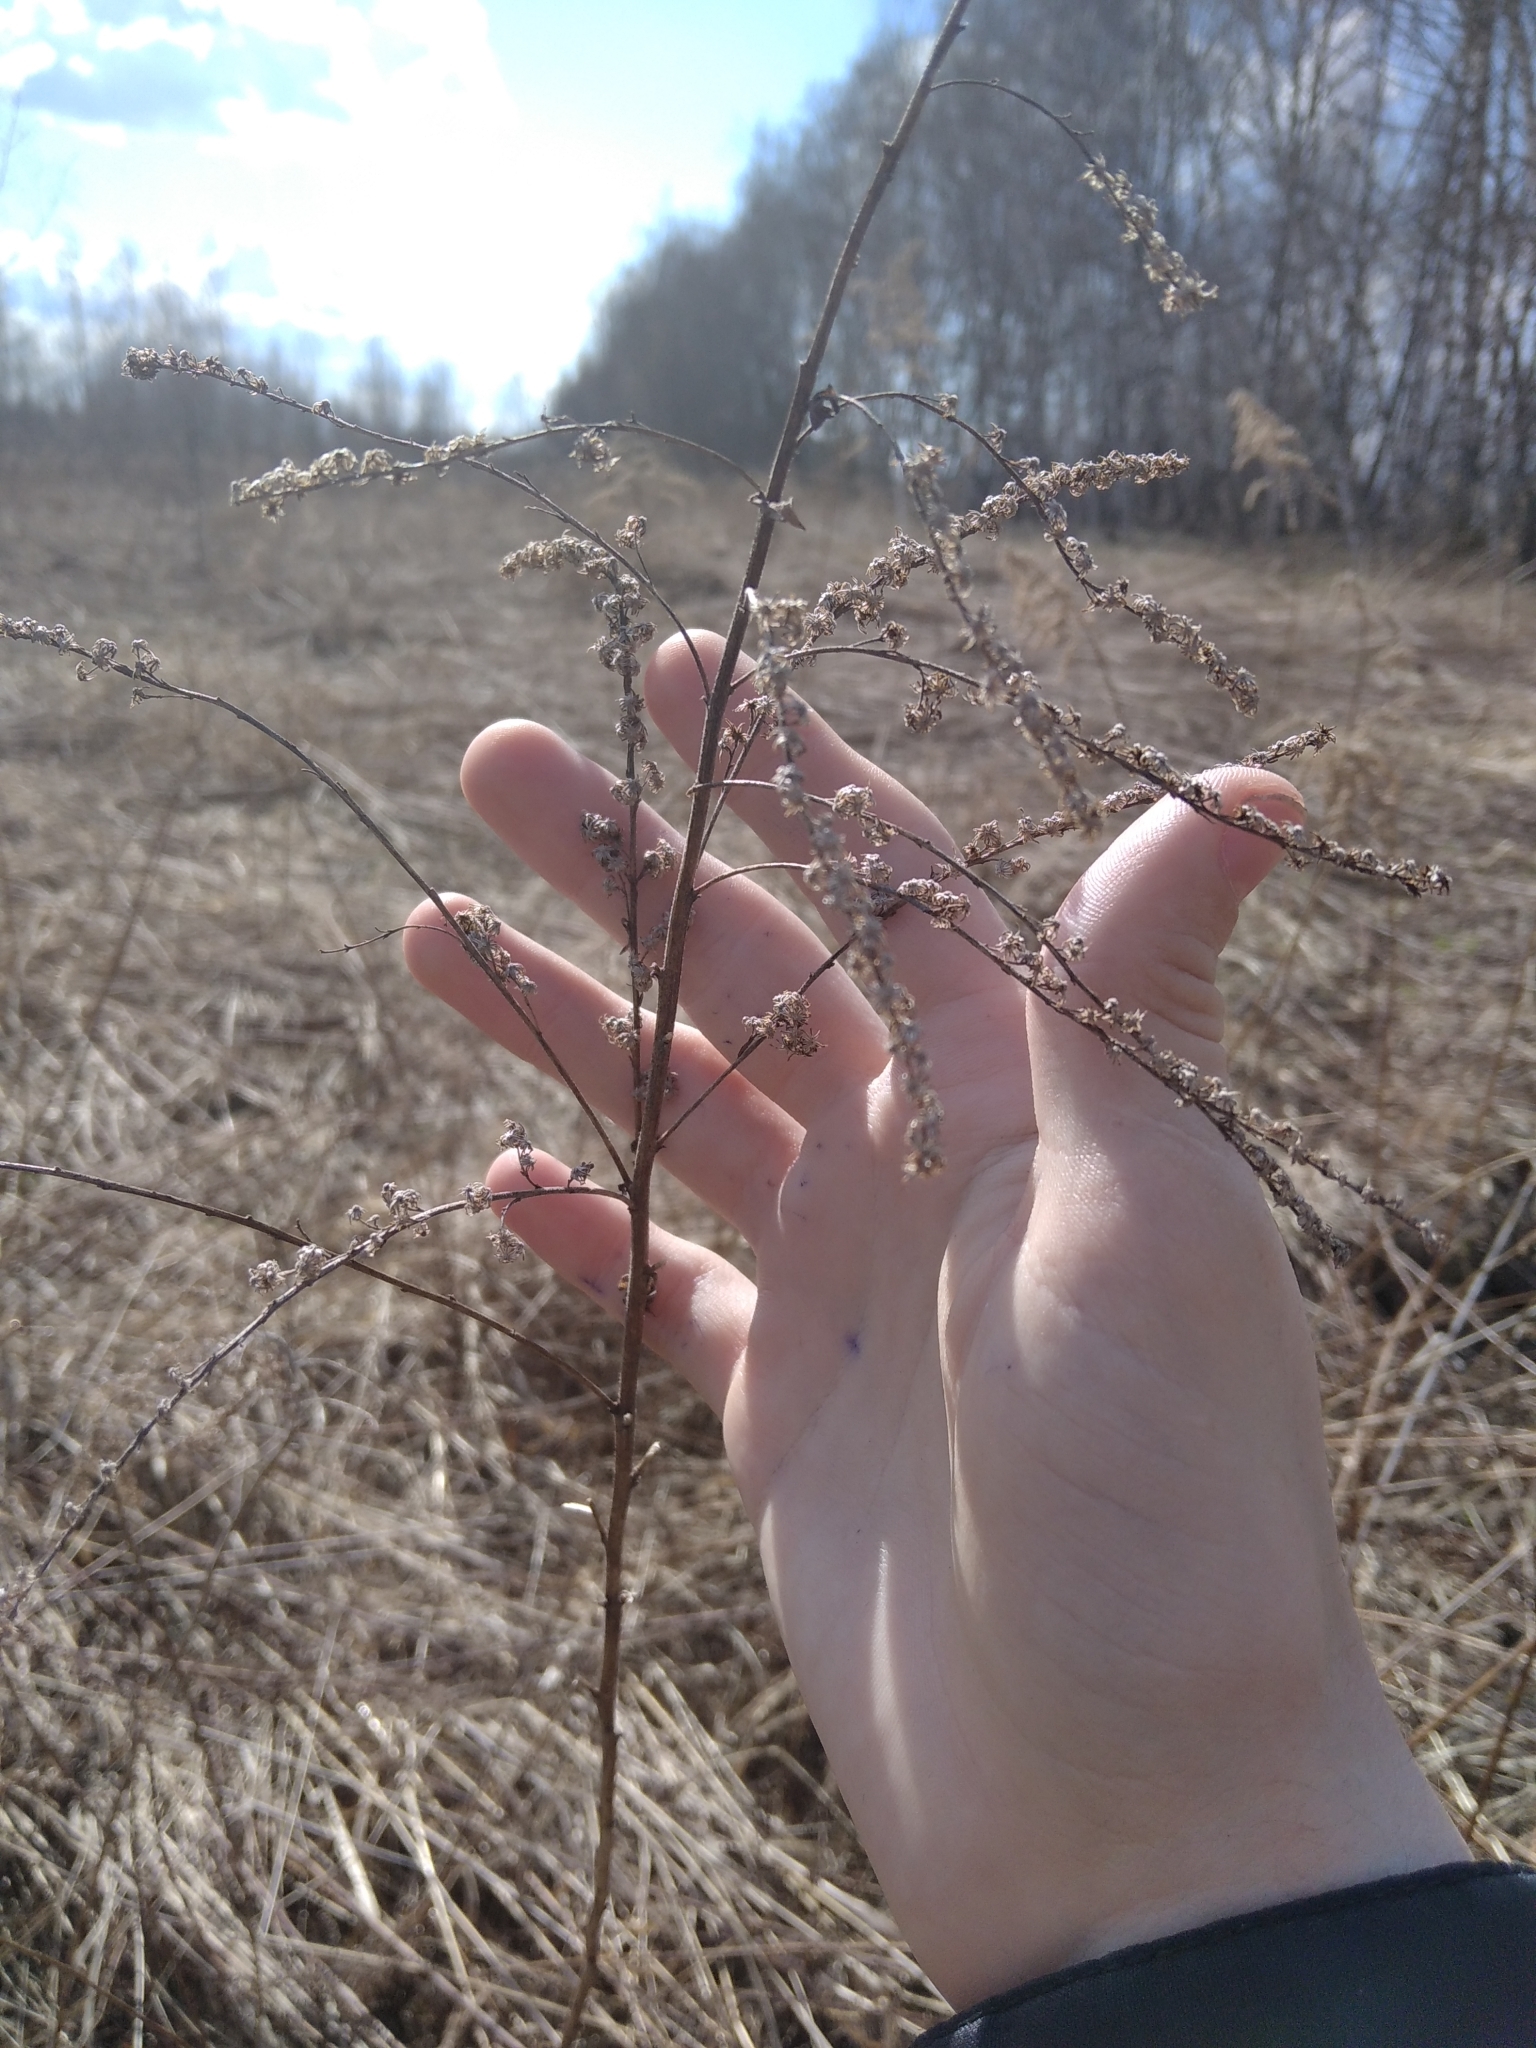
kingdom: Plantae
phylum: Tracheophyta
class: Magnoliopsida
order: Asterales
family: Asteraceae
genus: Solidago
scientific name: Solidago canadensis
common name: Canada goldenrod
